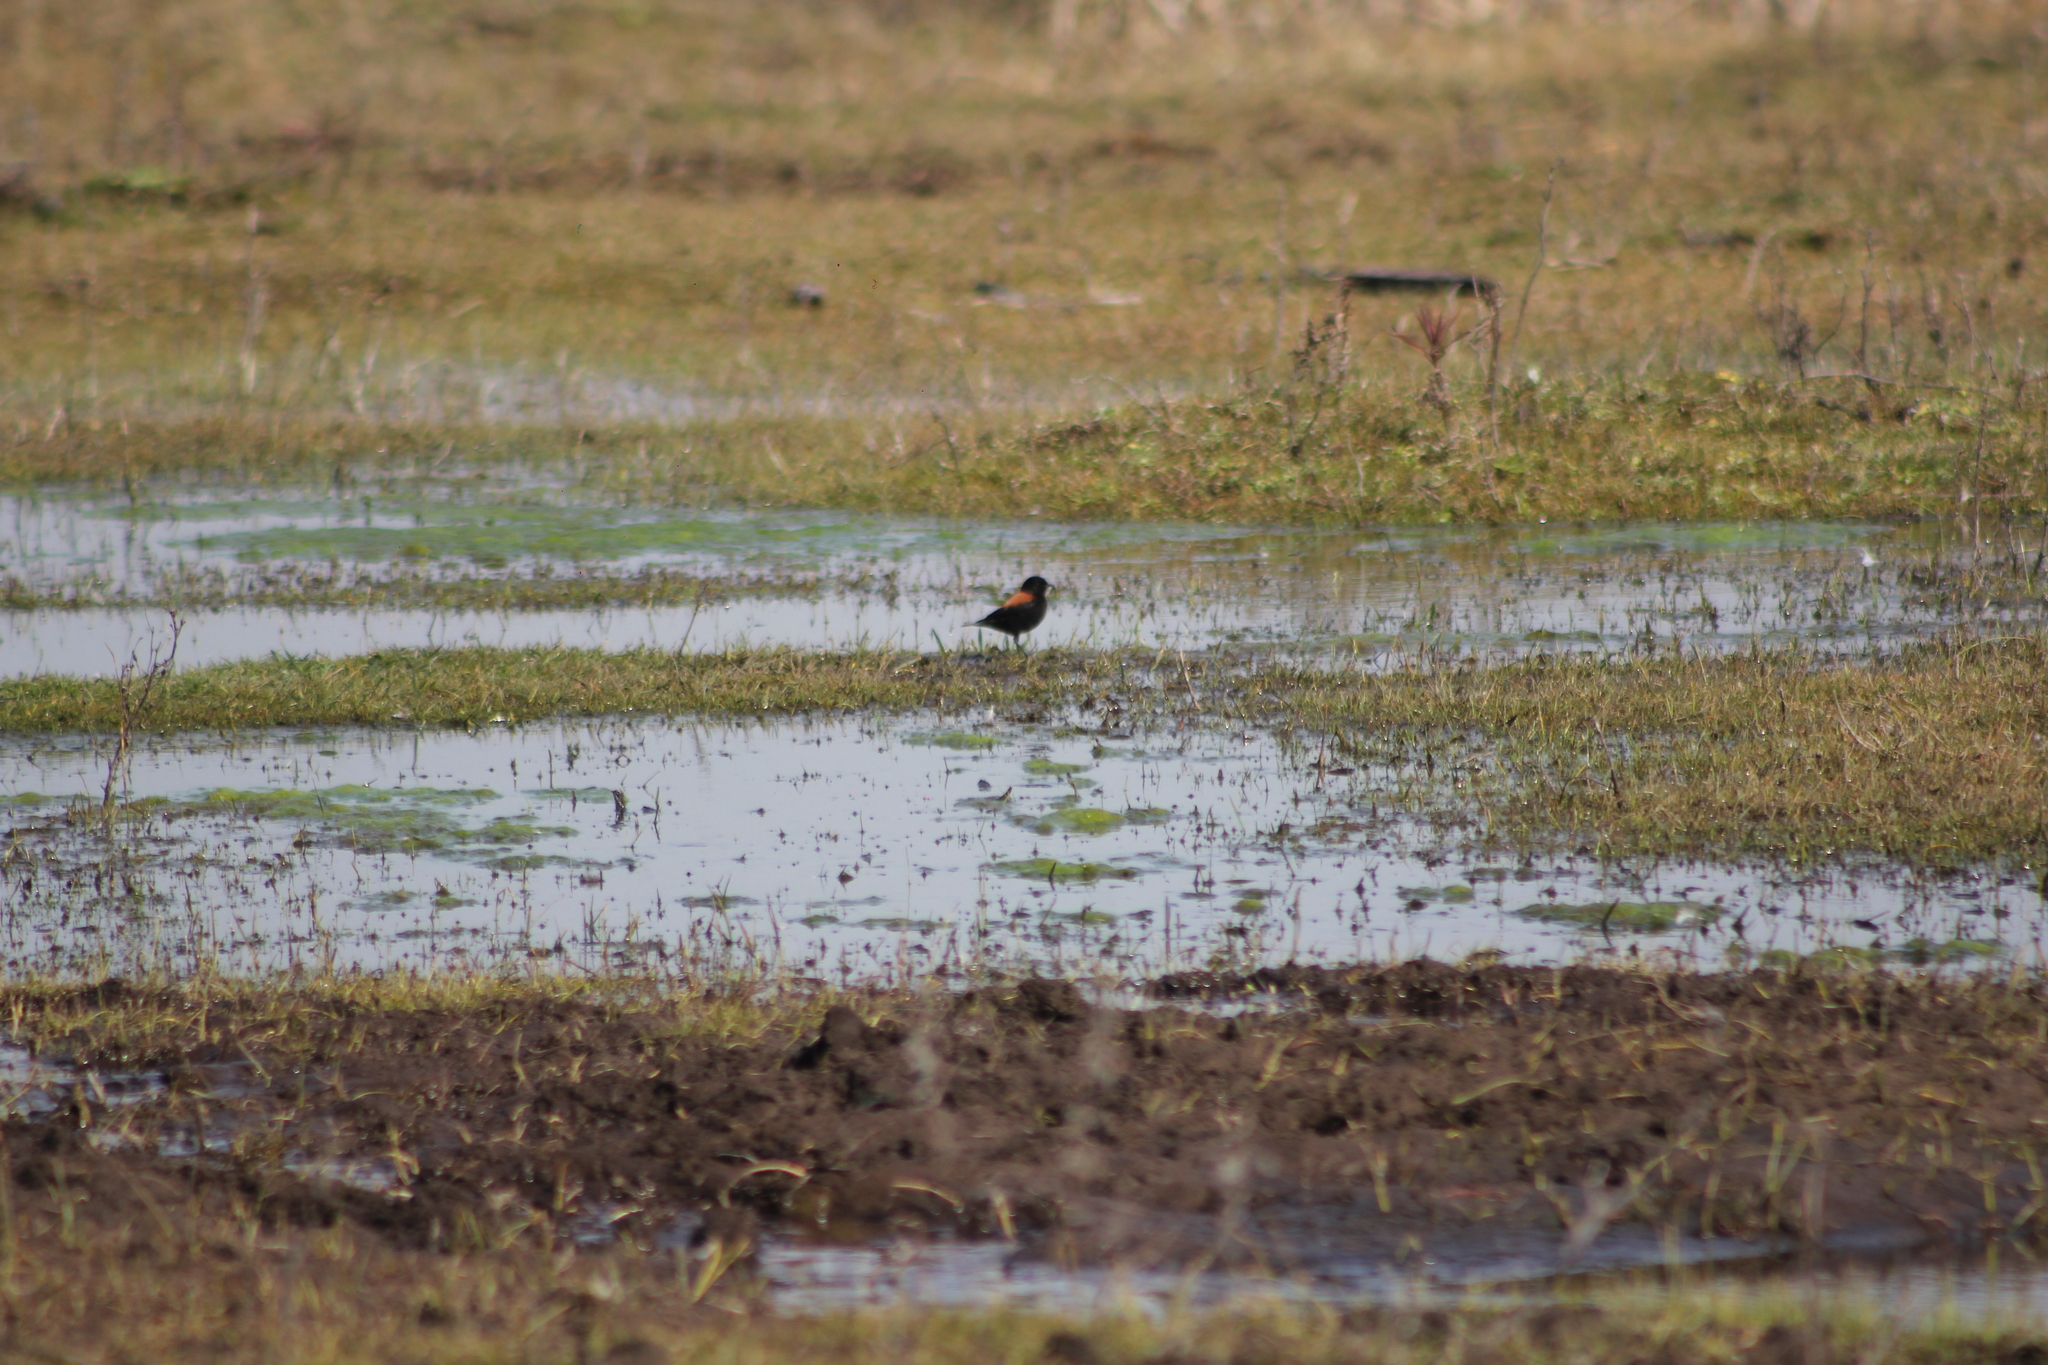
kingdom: Animalia
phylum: Chordata
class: Aves
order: Passeriformes
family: Tyrannidae
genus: Lessonia
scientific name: Lessonia rufa
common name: Austral negrito
